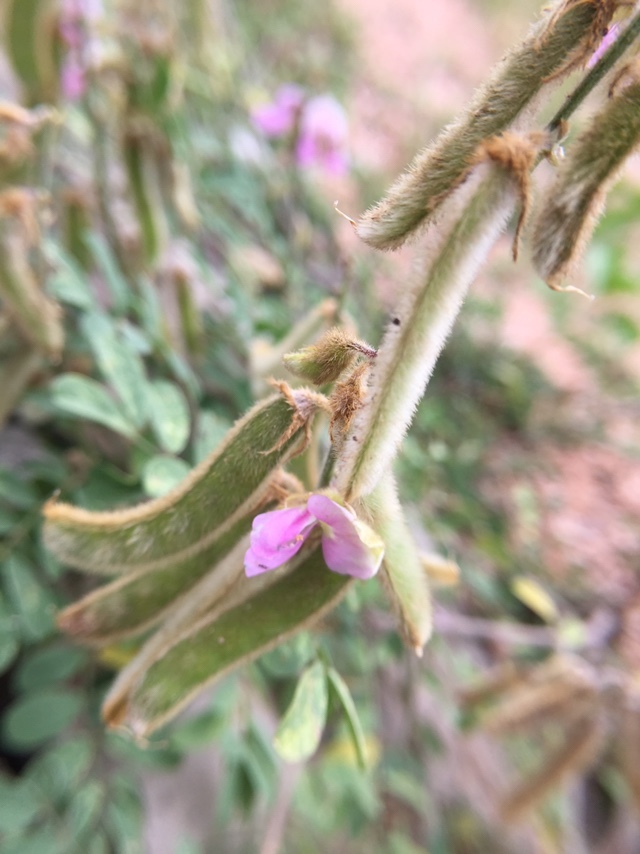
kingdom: Plantae
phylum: Tracheophyta
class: Magnoliopsida
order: Fabales
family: Fabaceae
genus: Tephrosia
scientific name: Tephrosia villosa
